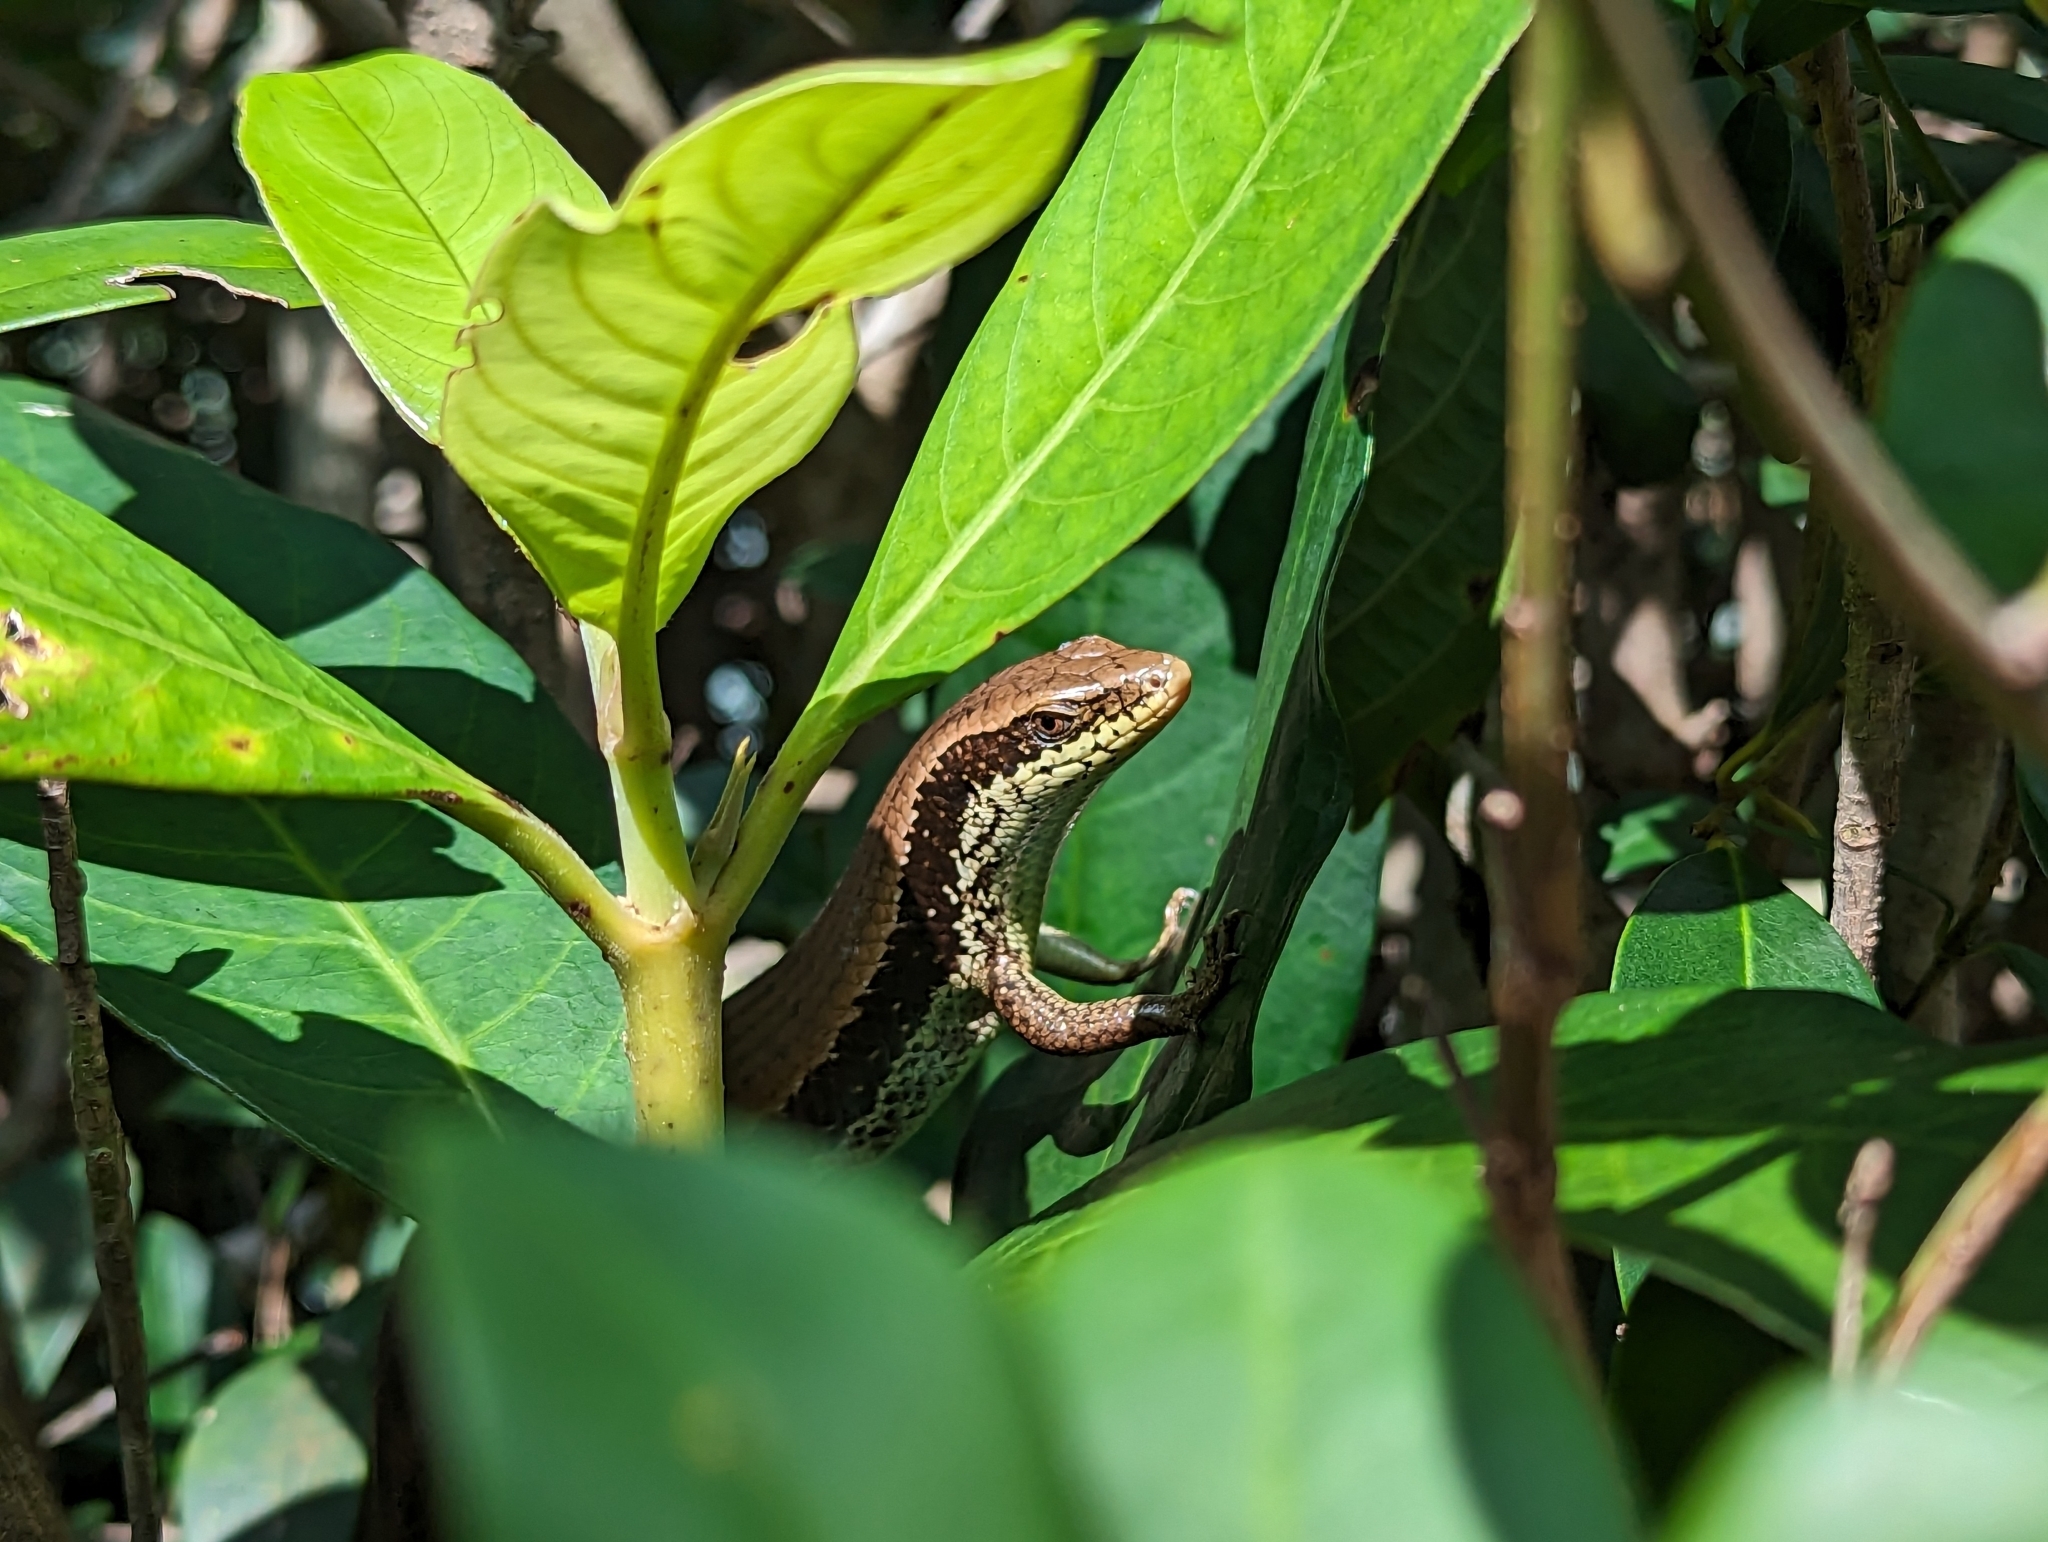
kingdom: Animalia
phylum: Chordata
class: Squamata
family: Scincidae
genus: Eutropis
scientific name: Eutropis longicaudata
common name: Long-tailed sun skink
